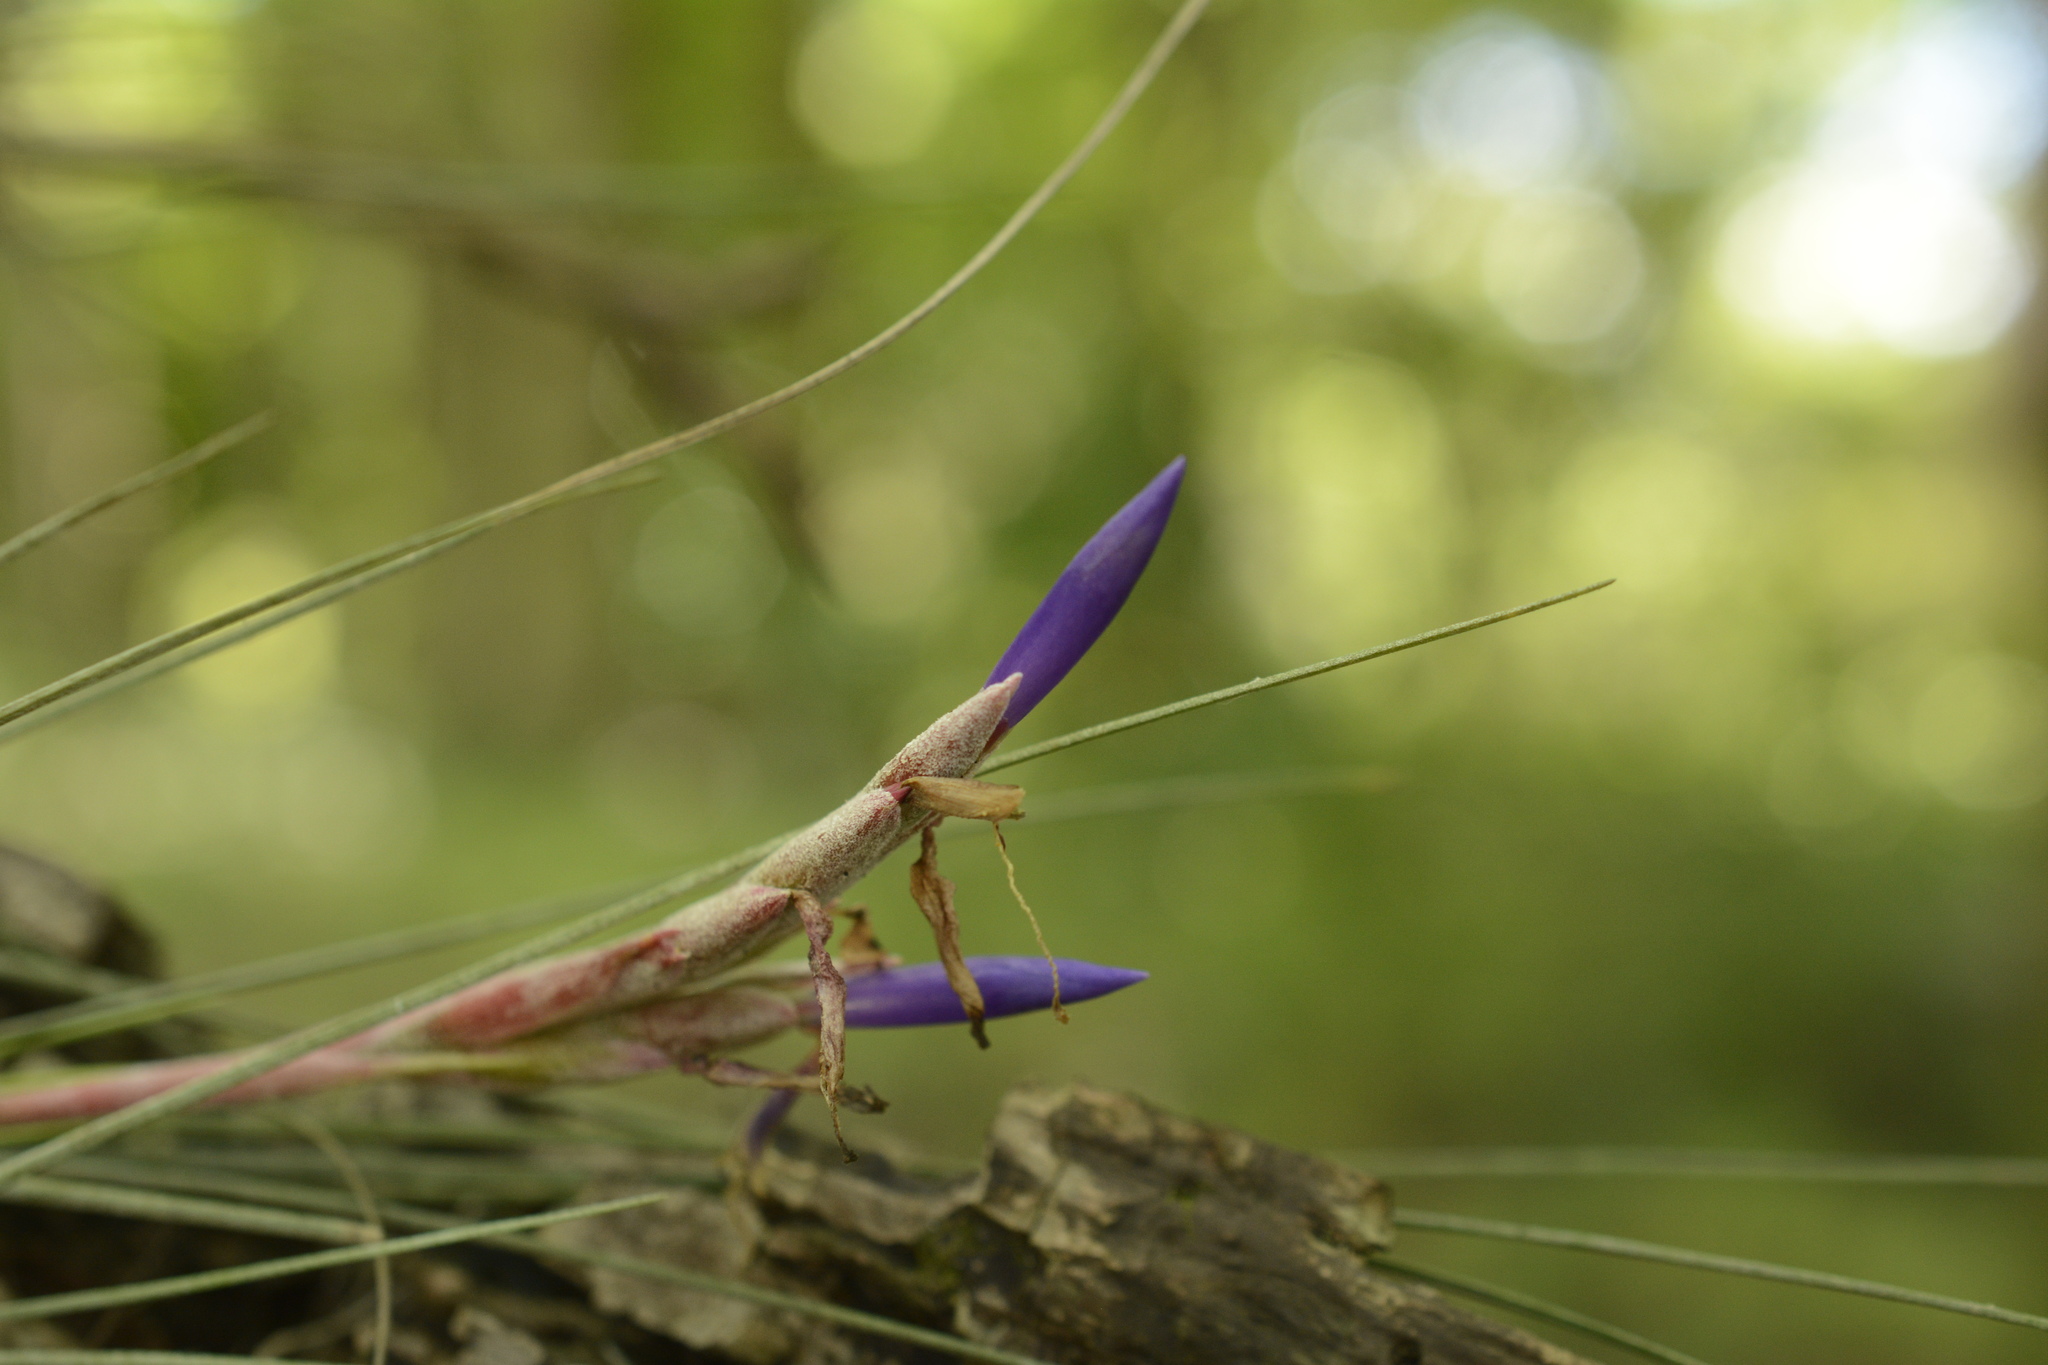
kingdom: Plantae
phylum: Tracheophyta
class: Liliopsida
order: Poales
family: Bromeliaceae
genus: Tillandsia
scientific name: Tillandsia bartramii
